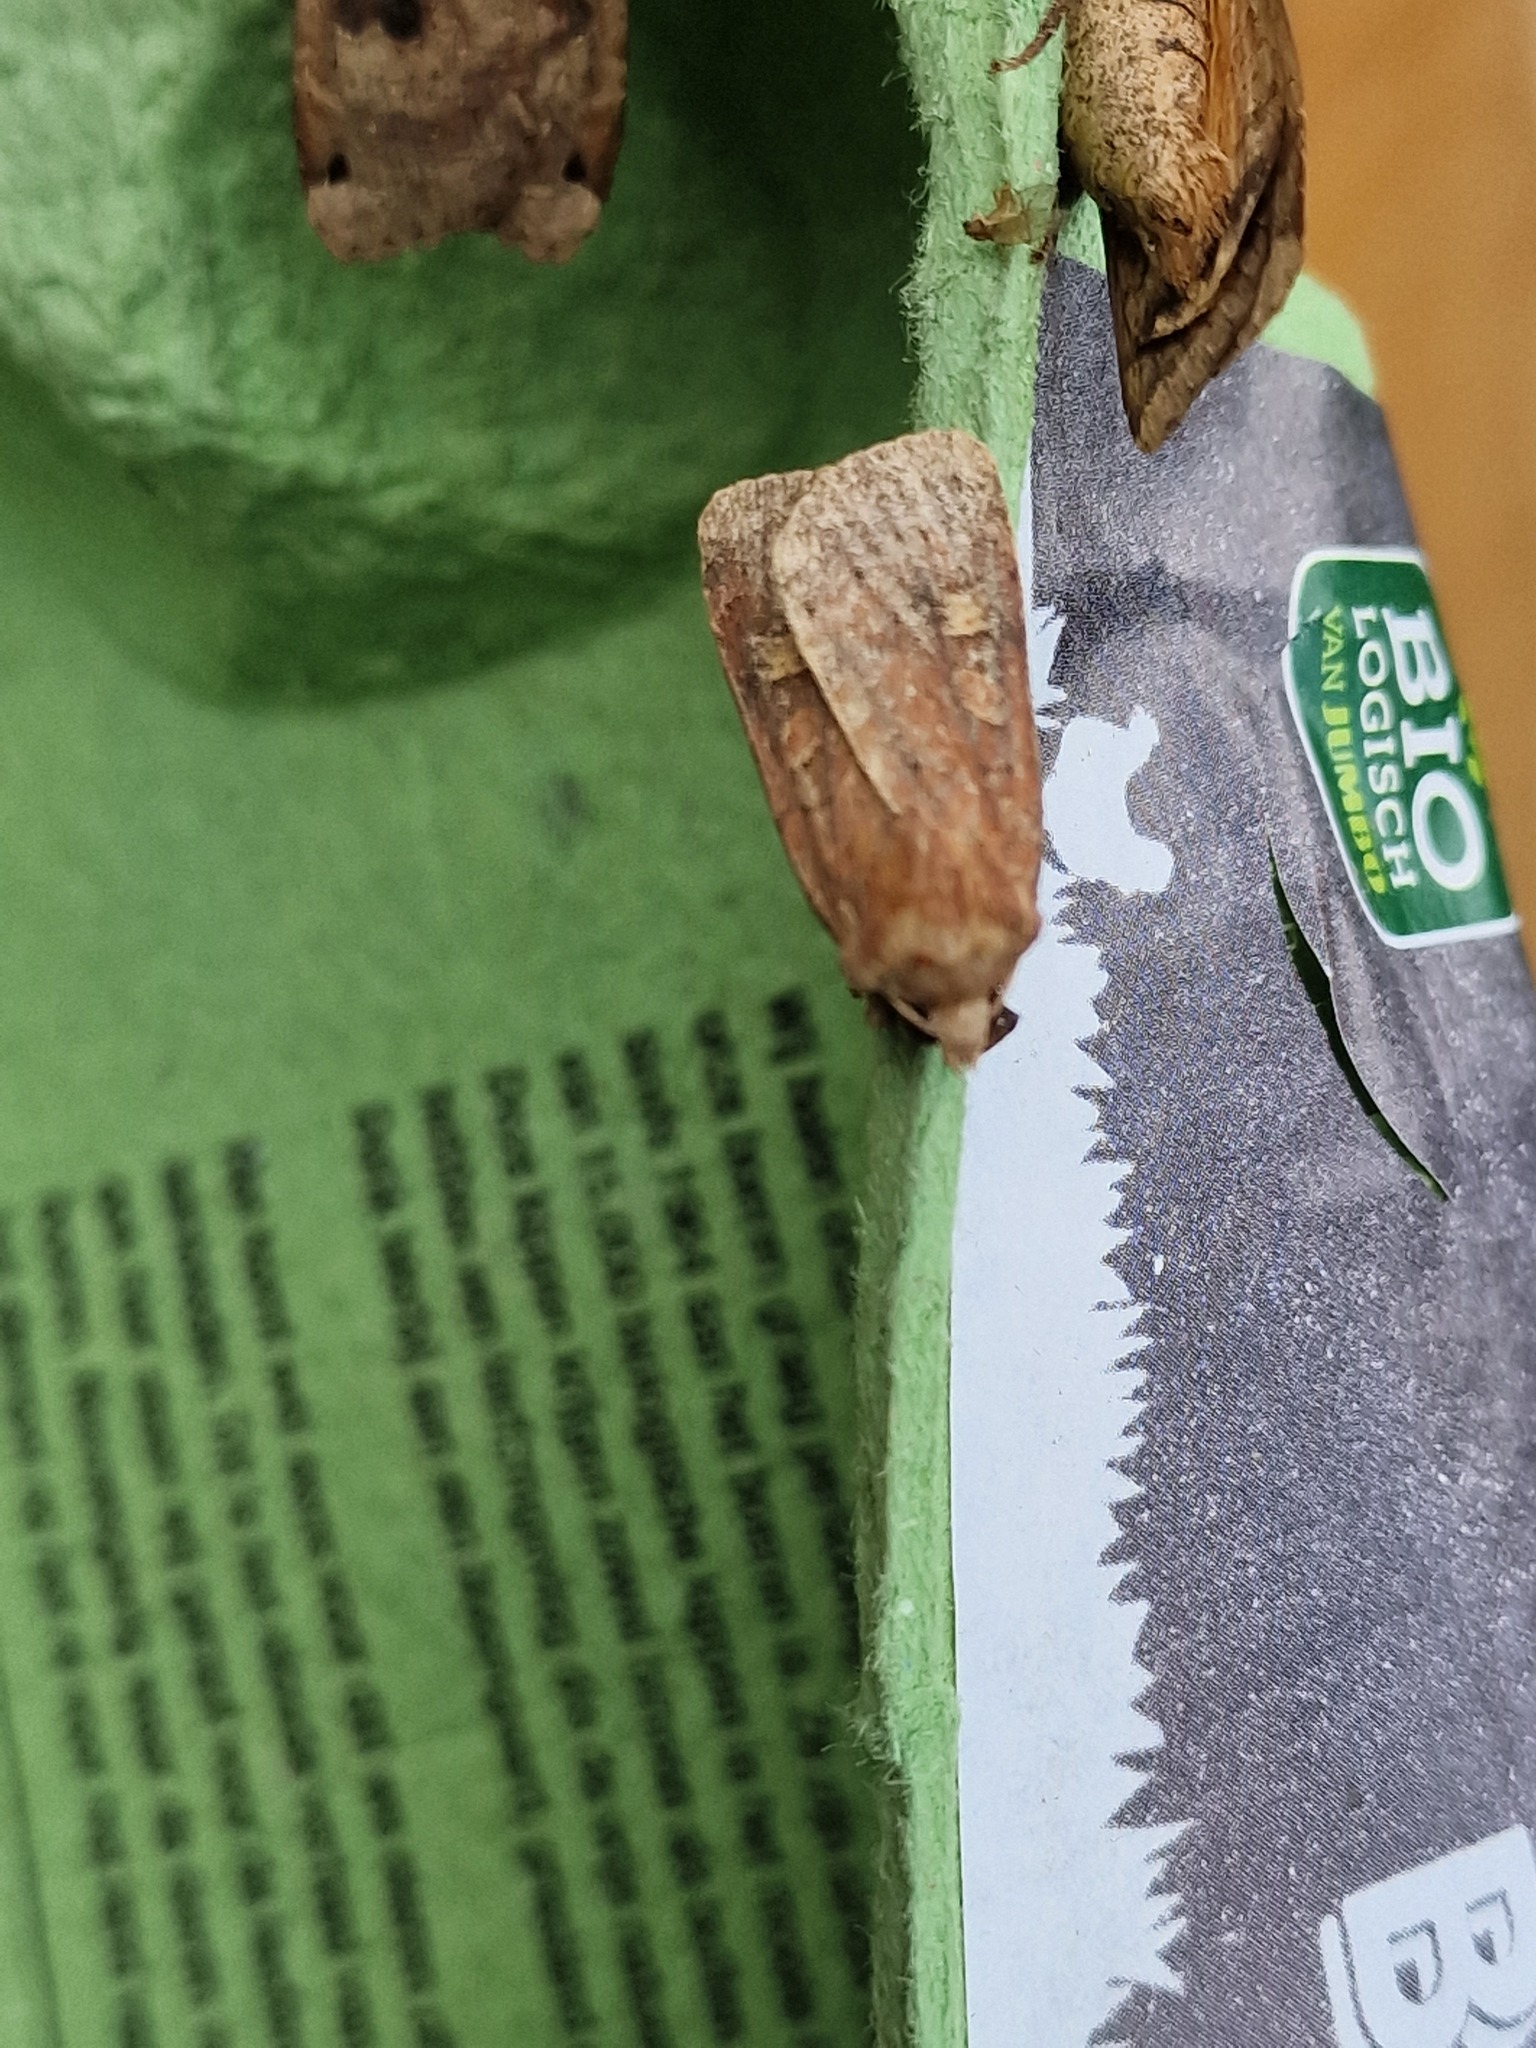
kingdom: Animalia
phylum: Arthropoda
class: Insecta
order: Lepidoptera
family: Noctuidae
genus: Xestia
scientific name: Xestia xanthographa
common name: Square-spot rustic
